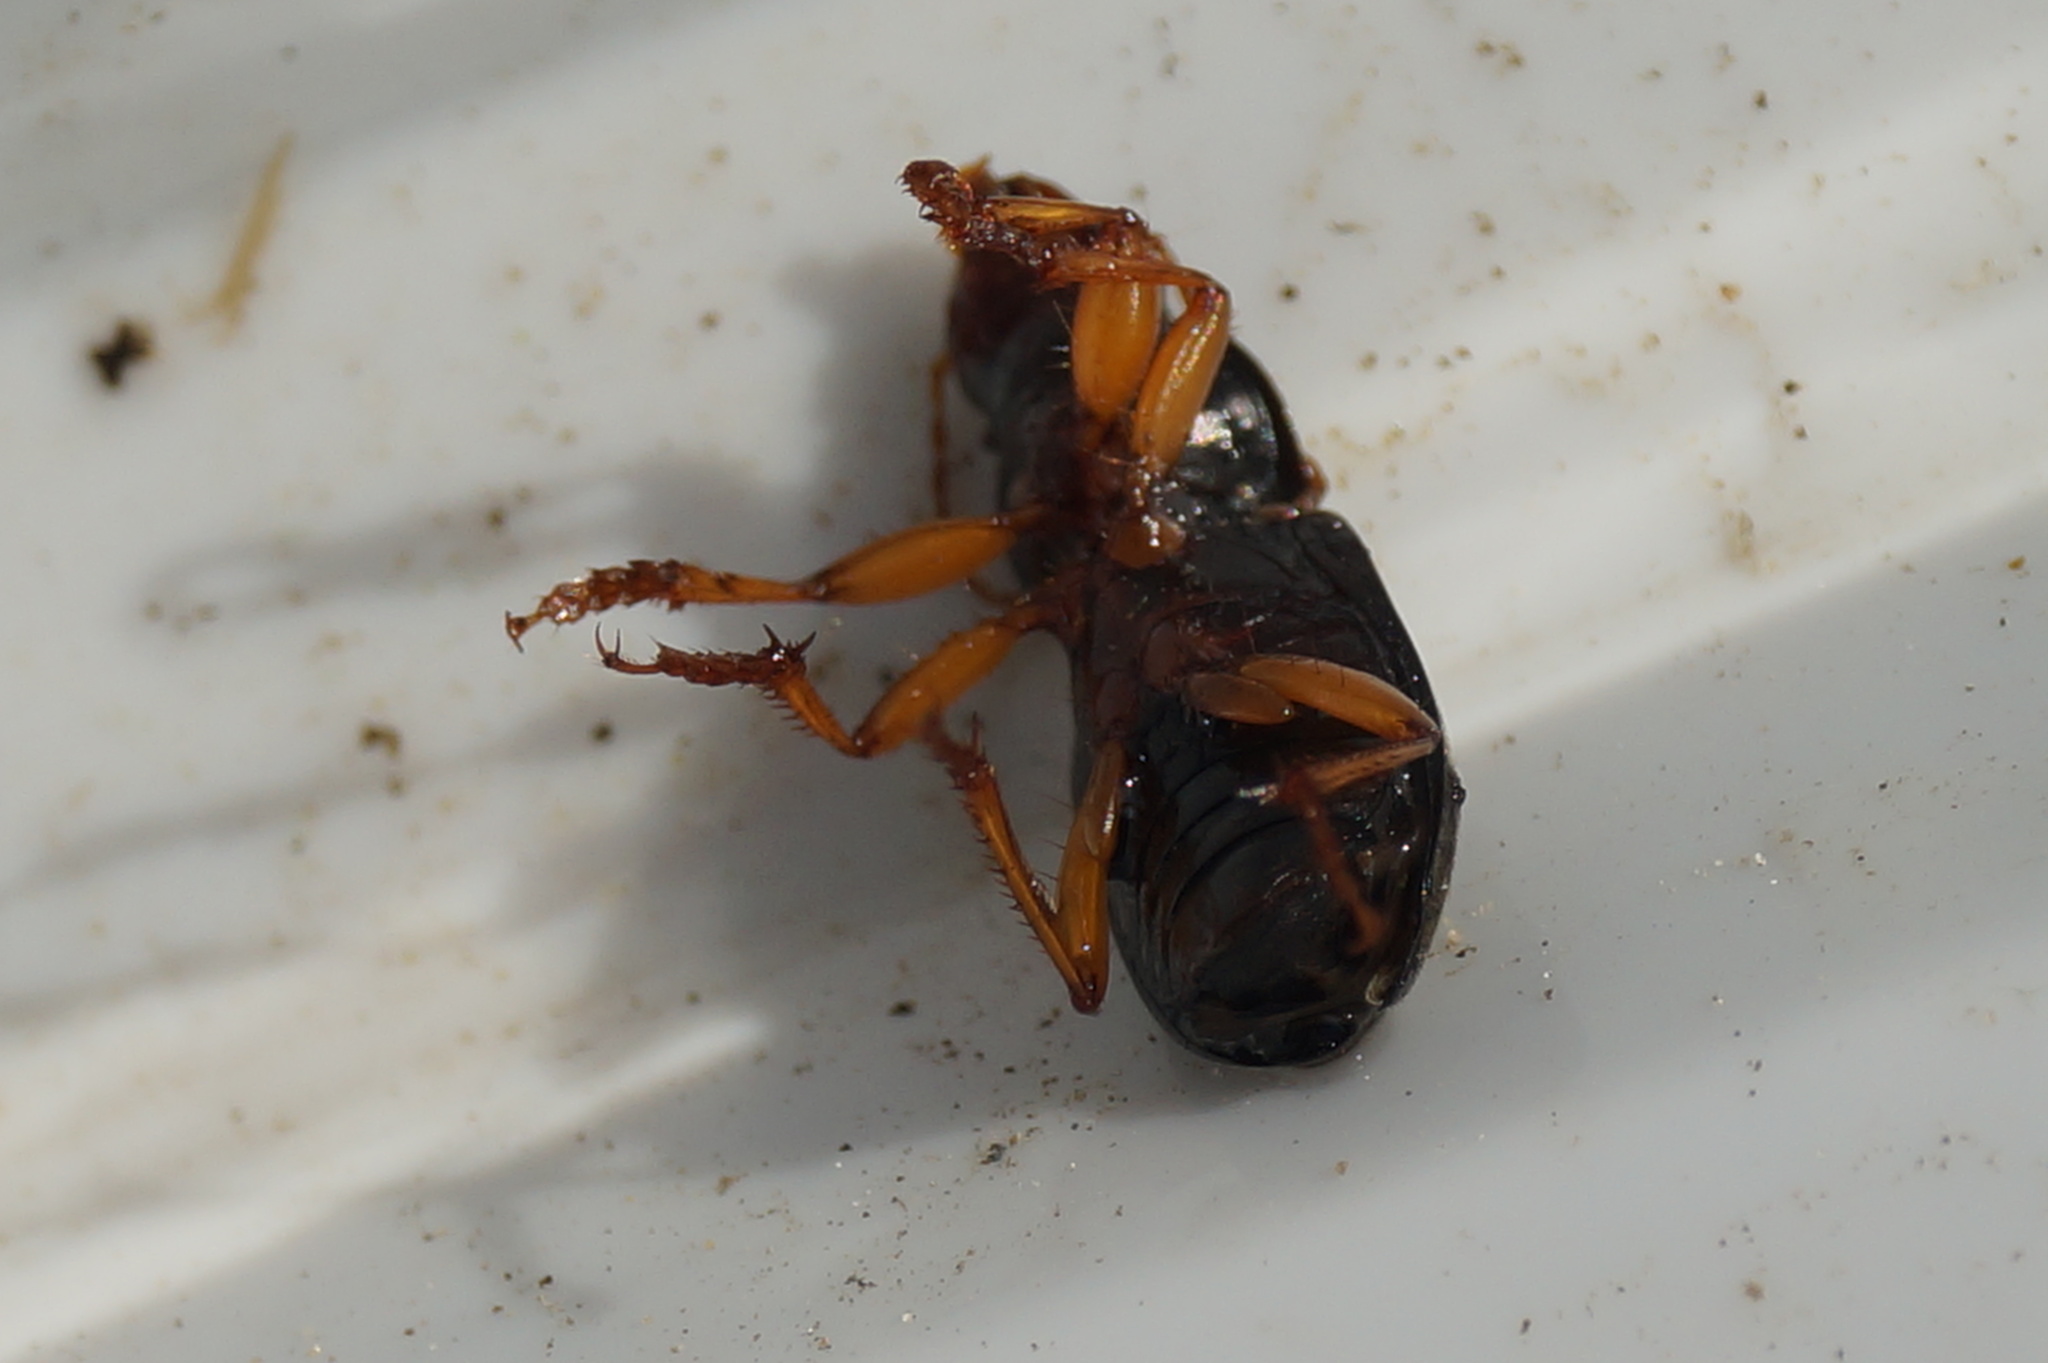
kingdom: Animalia
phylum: Arthropoda
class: Insecta
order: Coleoptera
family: Carabidae
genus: Harpalus
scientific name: Harpalus rufipes
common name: Strawberry harp ground beetle
